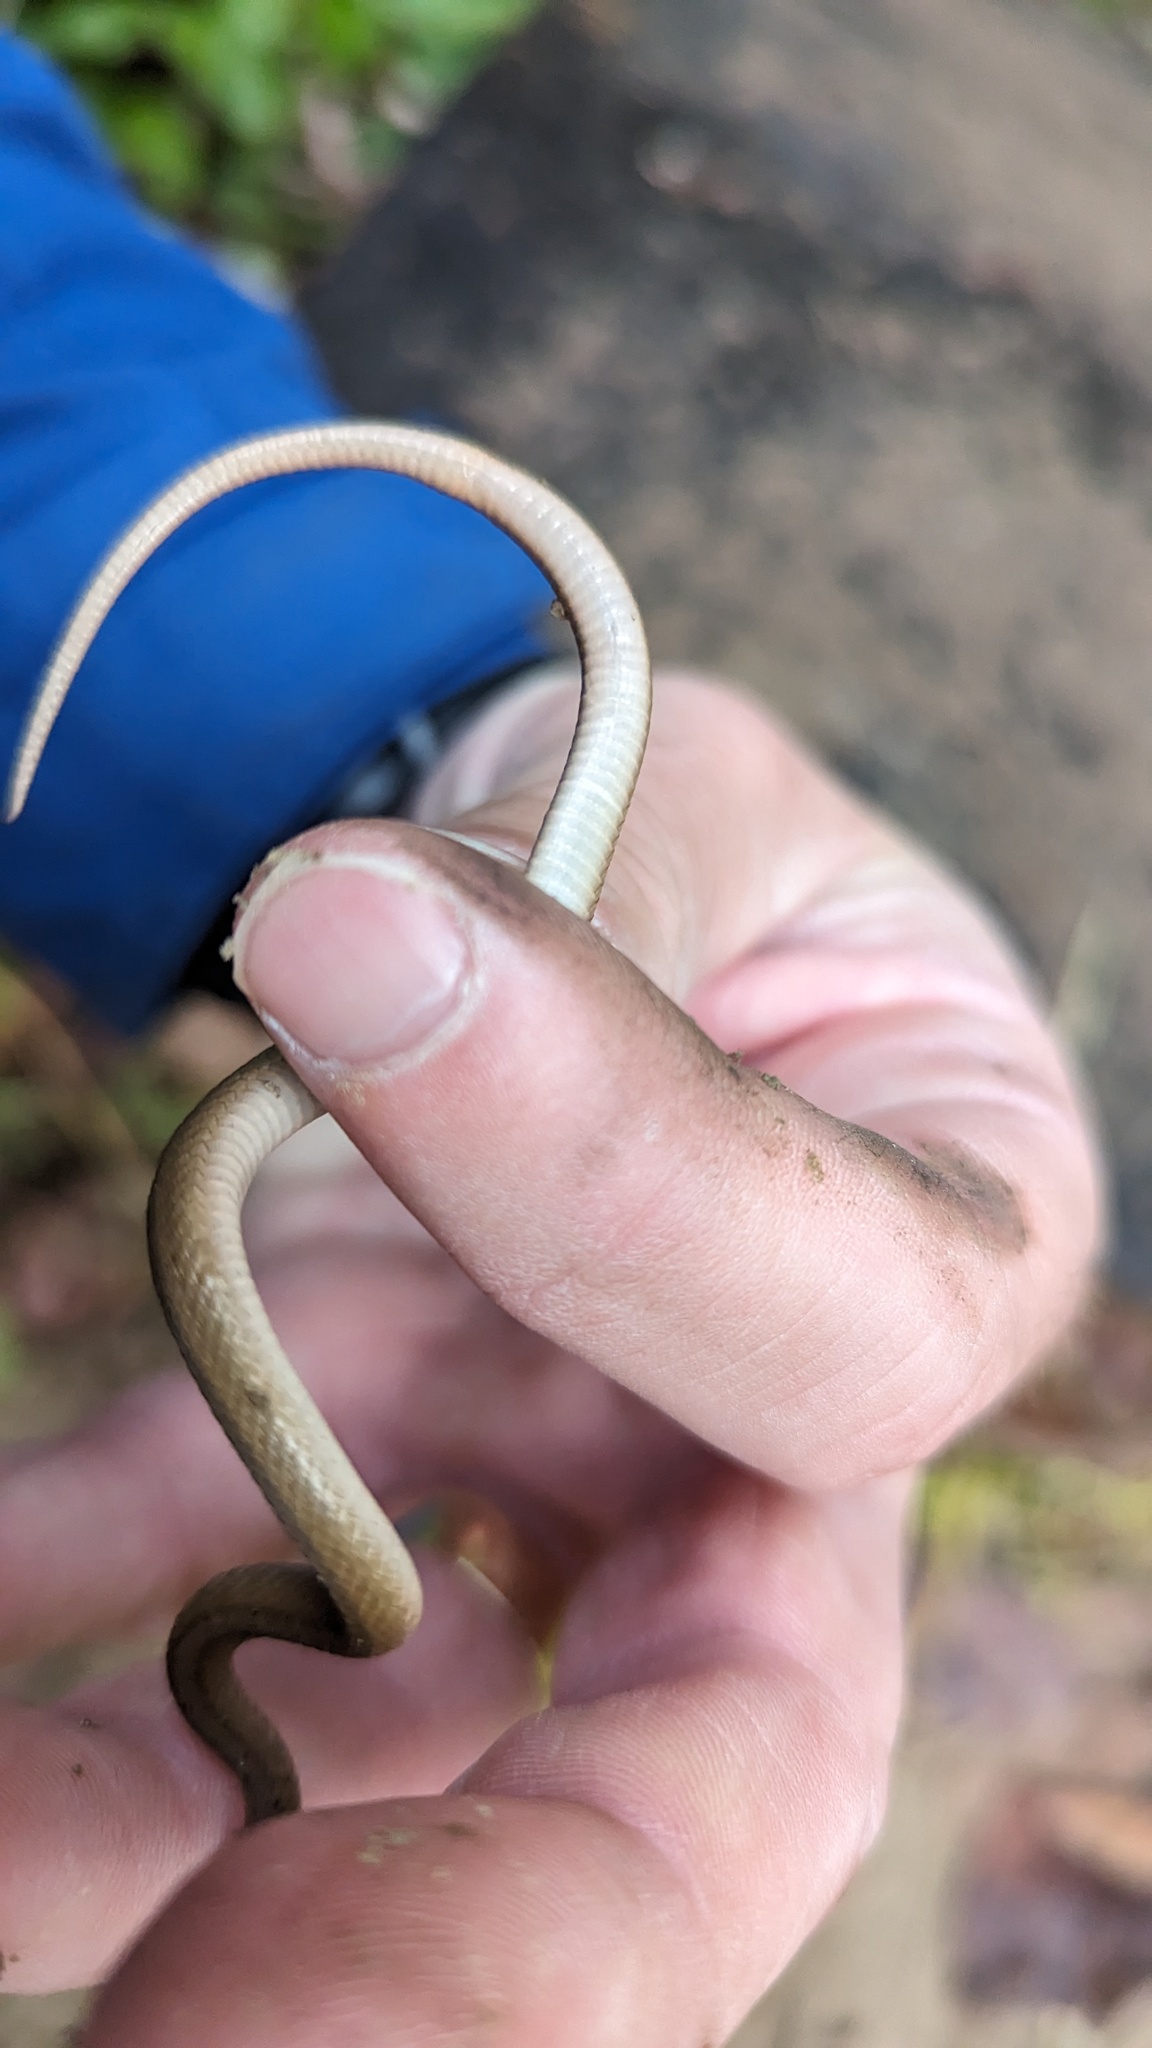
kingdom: Animalia
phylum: Chordata
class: Squamata
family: Colubridae
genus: Storeria
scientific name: Storeria dekayi
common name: (dekay’s) brown snake
